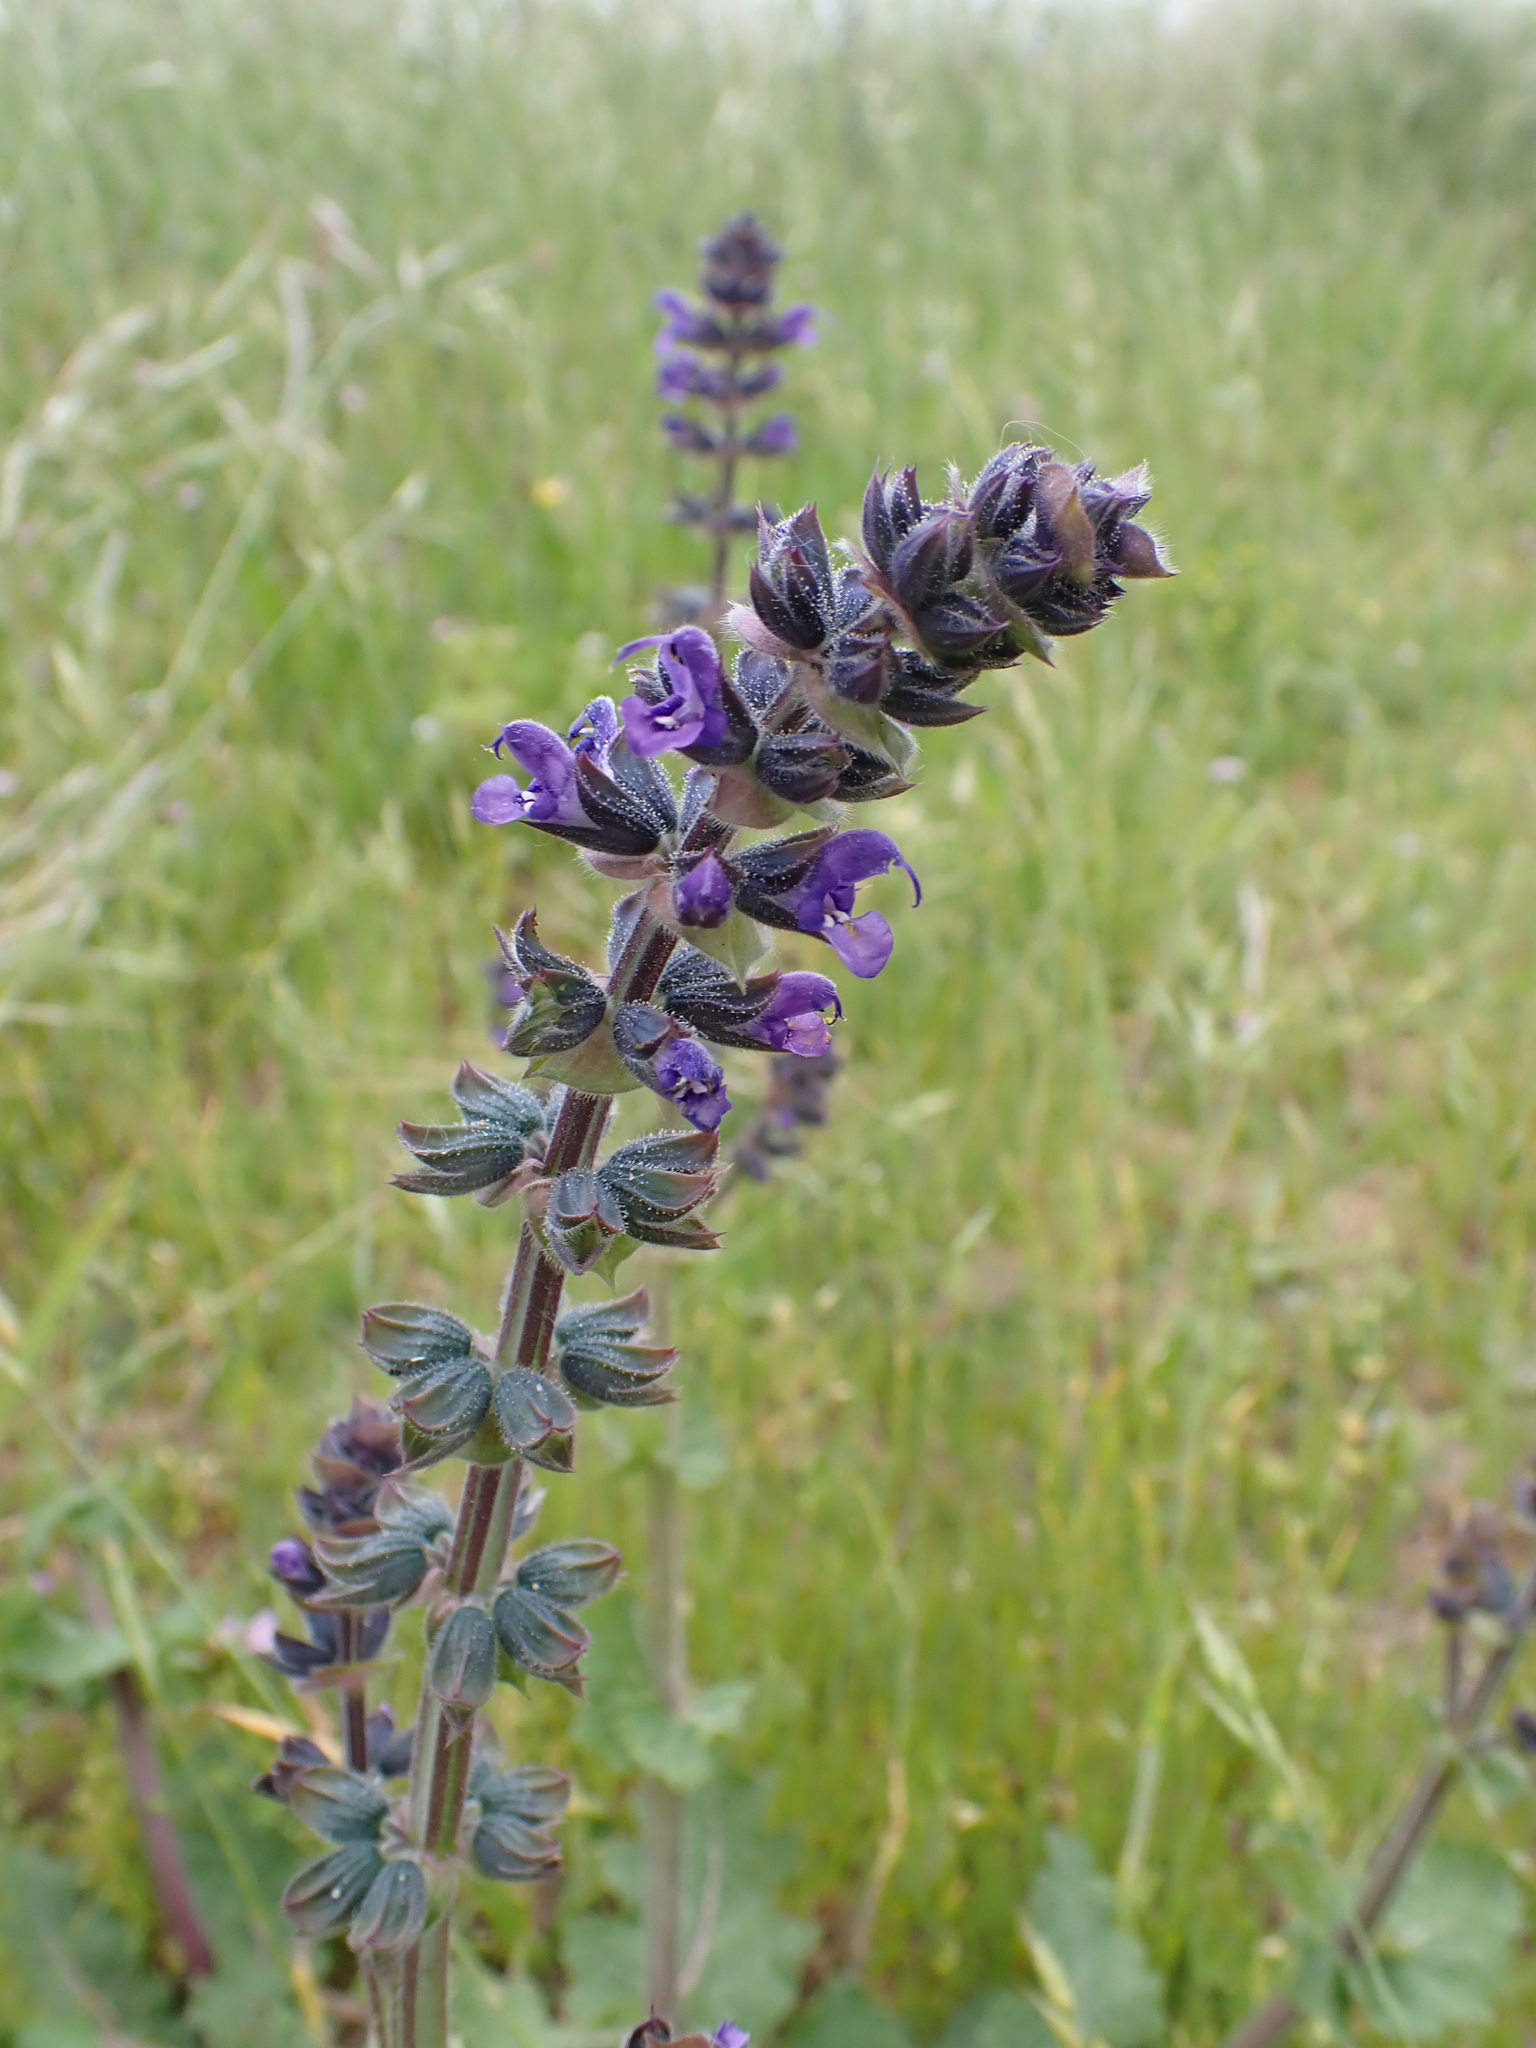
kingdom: Plantae
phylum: Tracheophyta
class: Magnoliopsida
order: Lamiales
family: Lamiaceae
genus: Salvia
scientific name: Salvia verbenaca
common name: Wild clary
